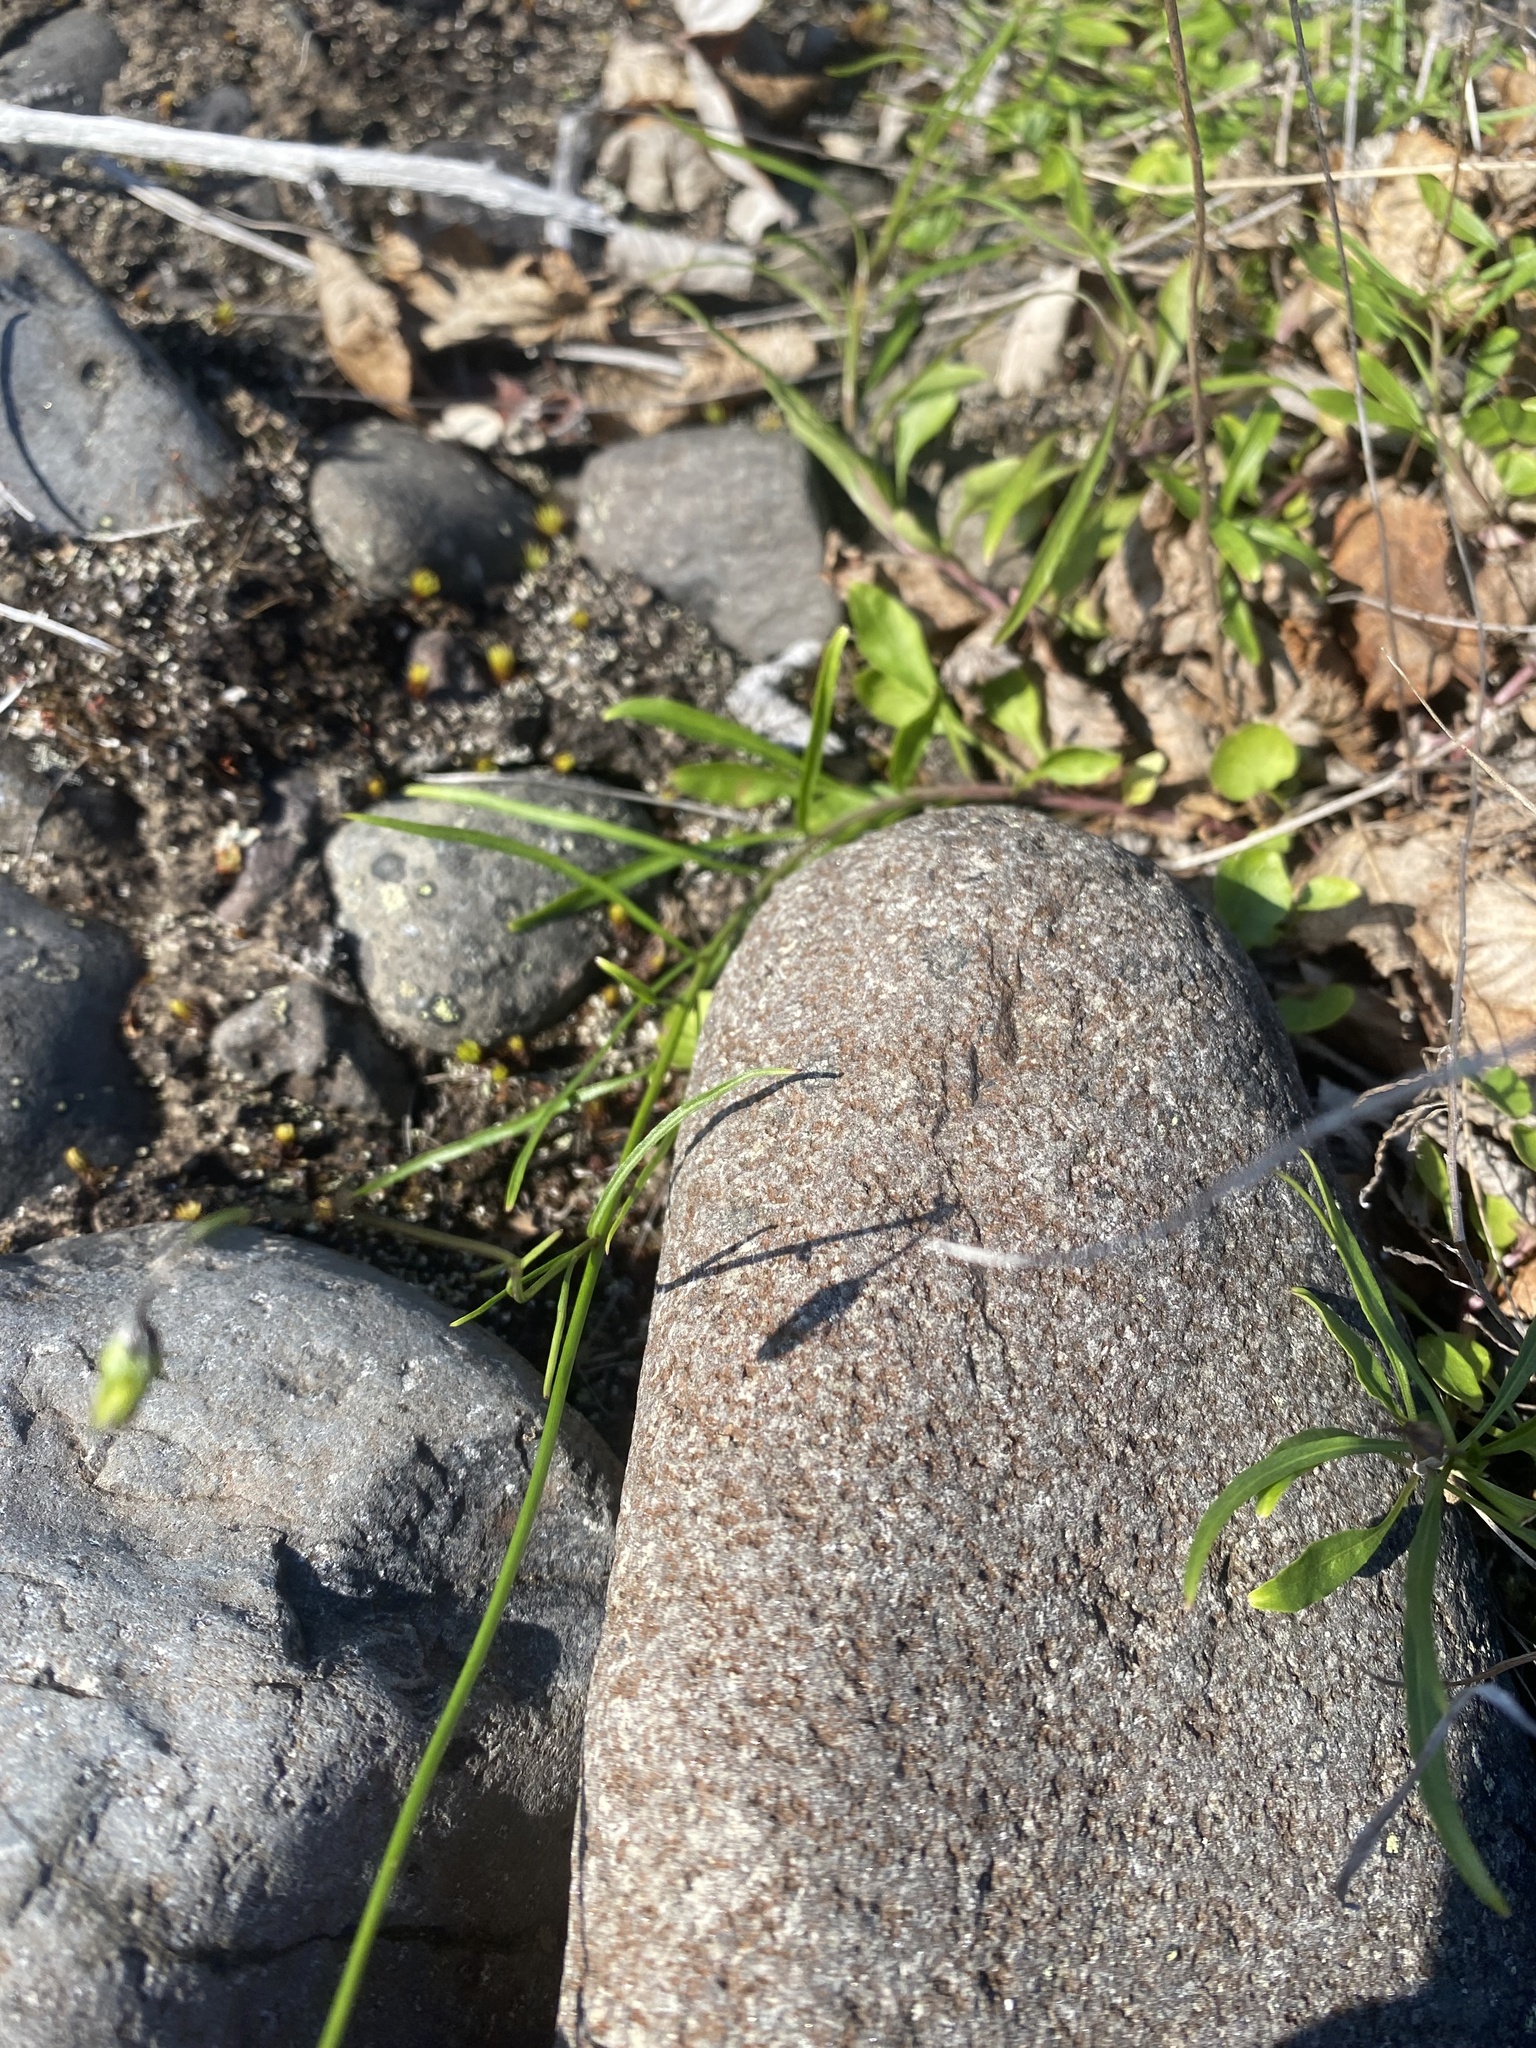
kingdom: Plantae
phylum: Tracheophyta
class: Magnoliopsida
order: Asterales
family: Campanulaceae
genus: Campanula
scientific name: Campanula rotundifolia
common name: Harebell
